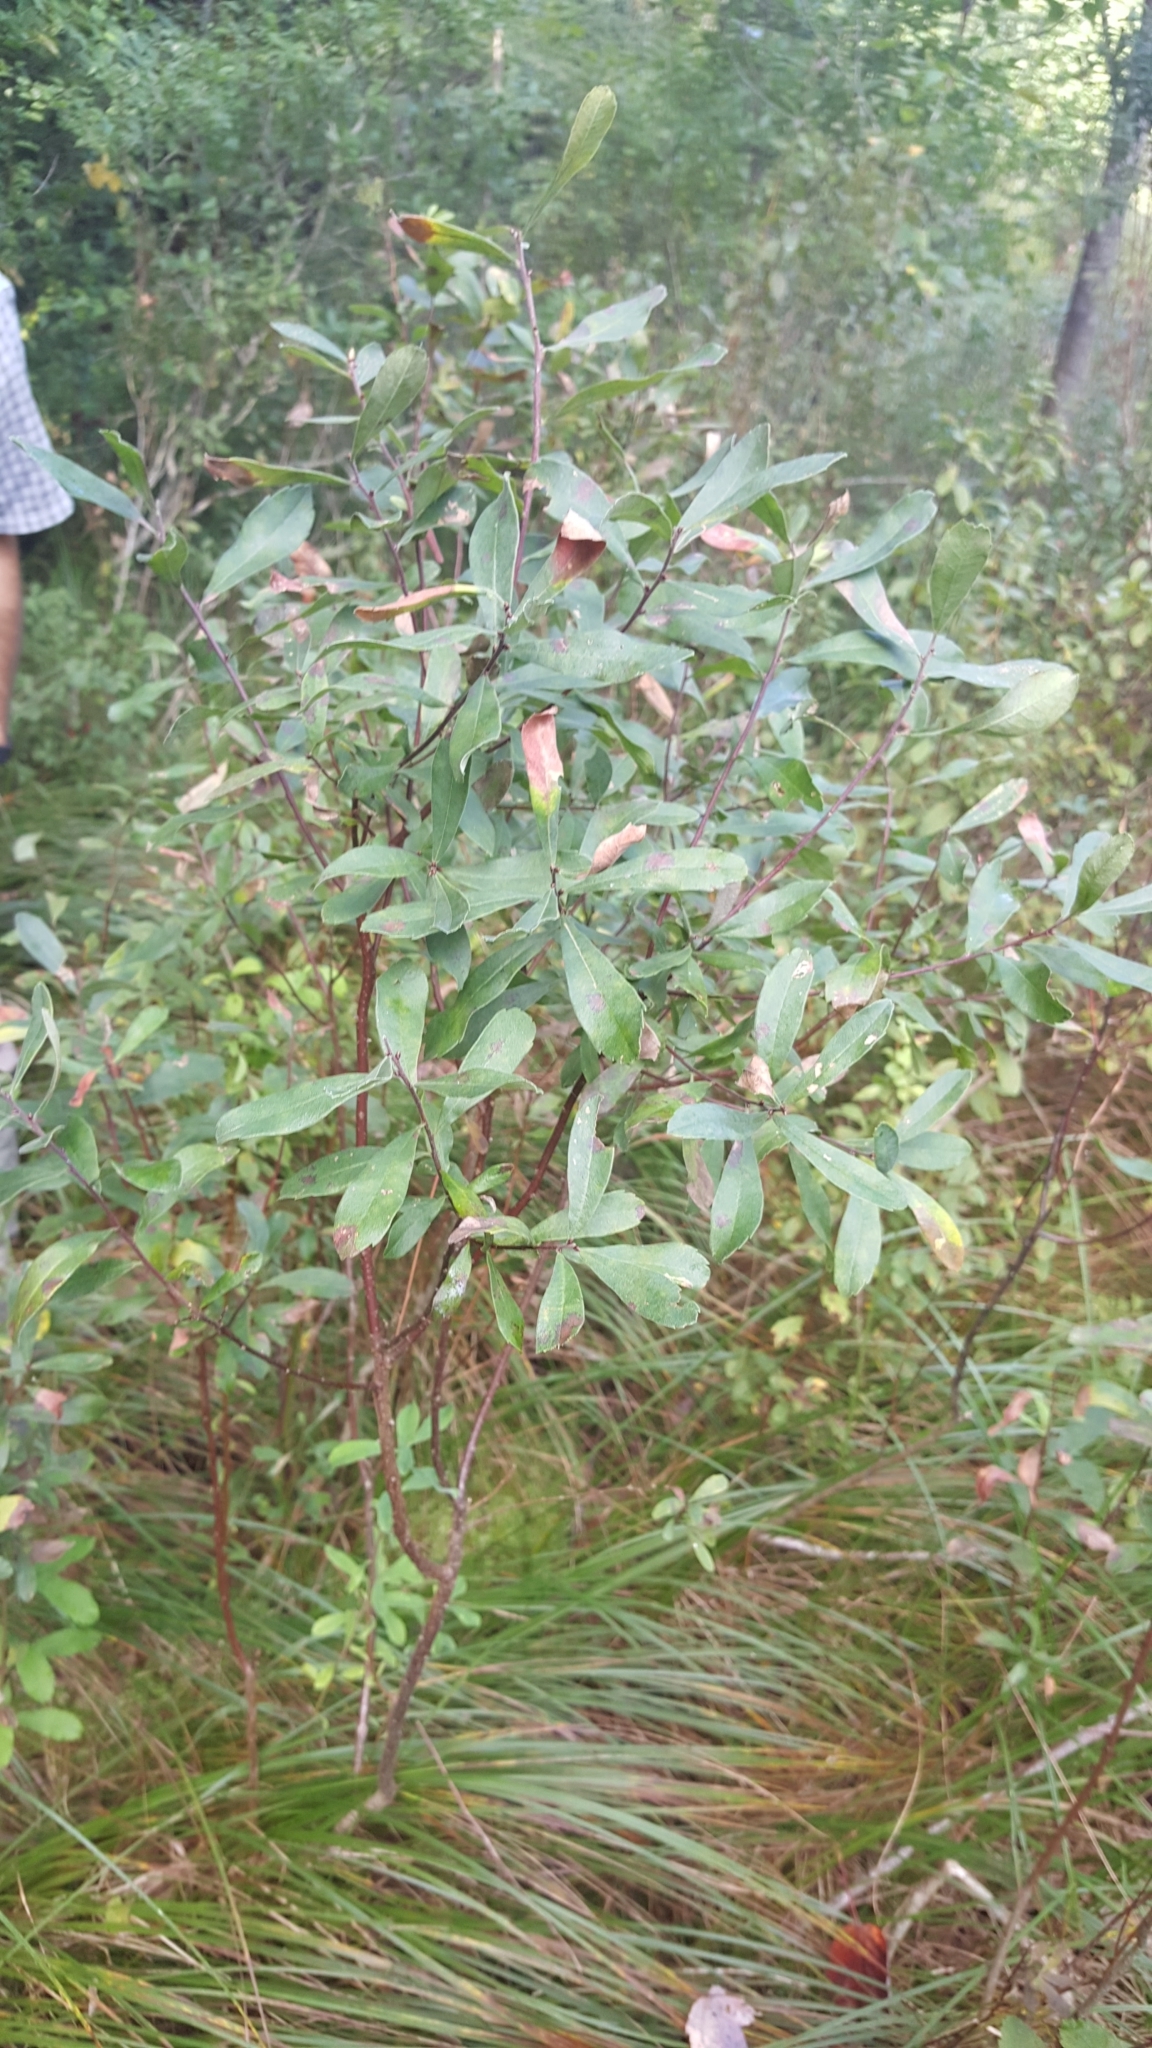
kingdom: Plantae
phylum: Tracheophyta
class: Magnoliopsida
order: Fagales
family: Myricaceae
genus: Myrica
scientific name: Myrica gale
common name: Sweet gale
